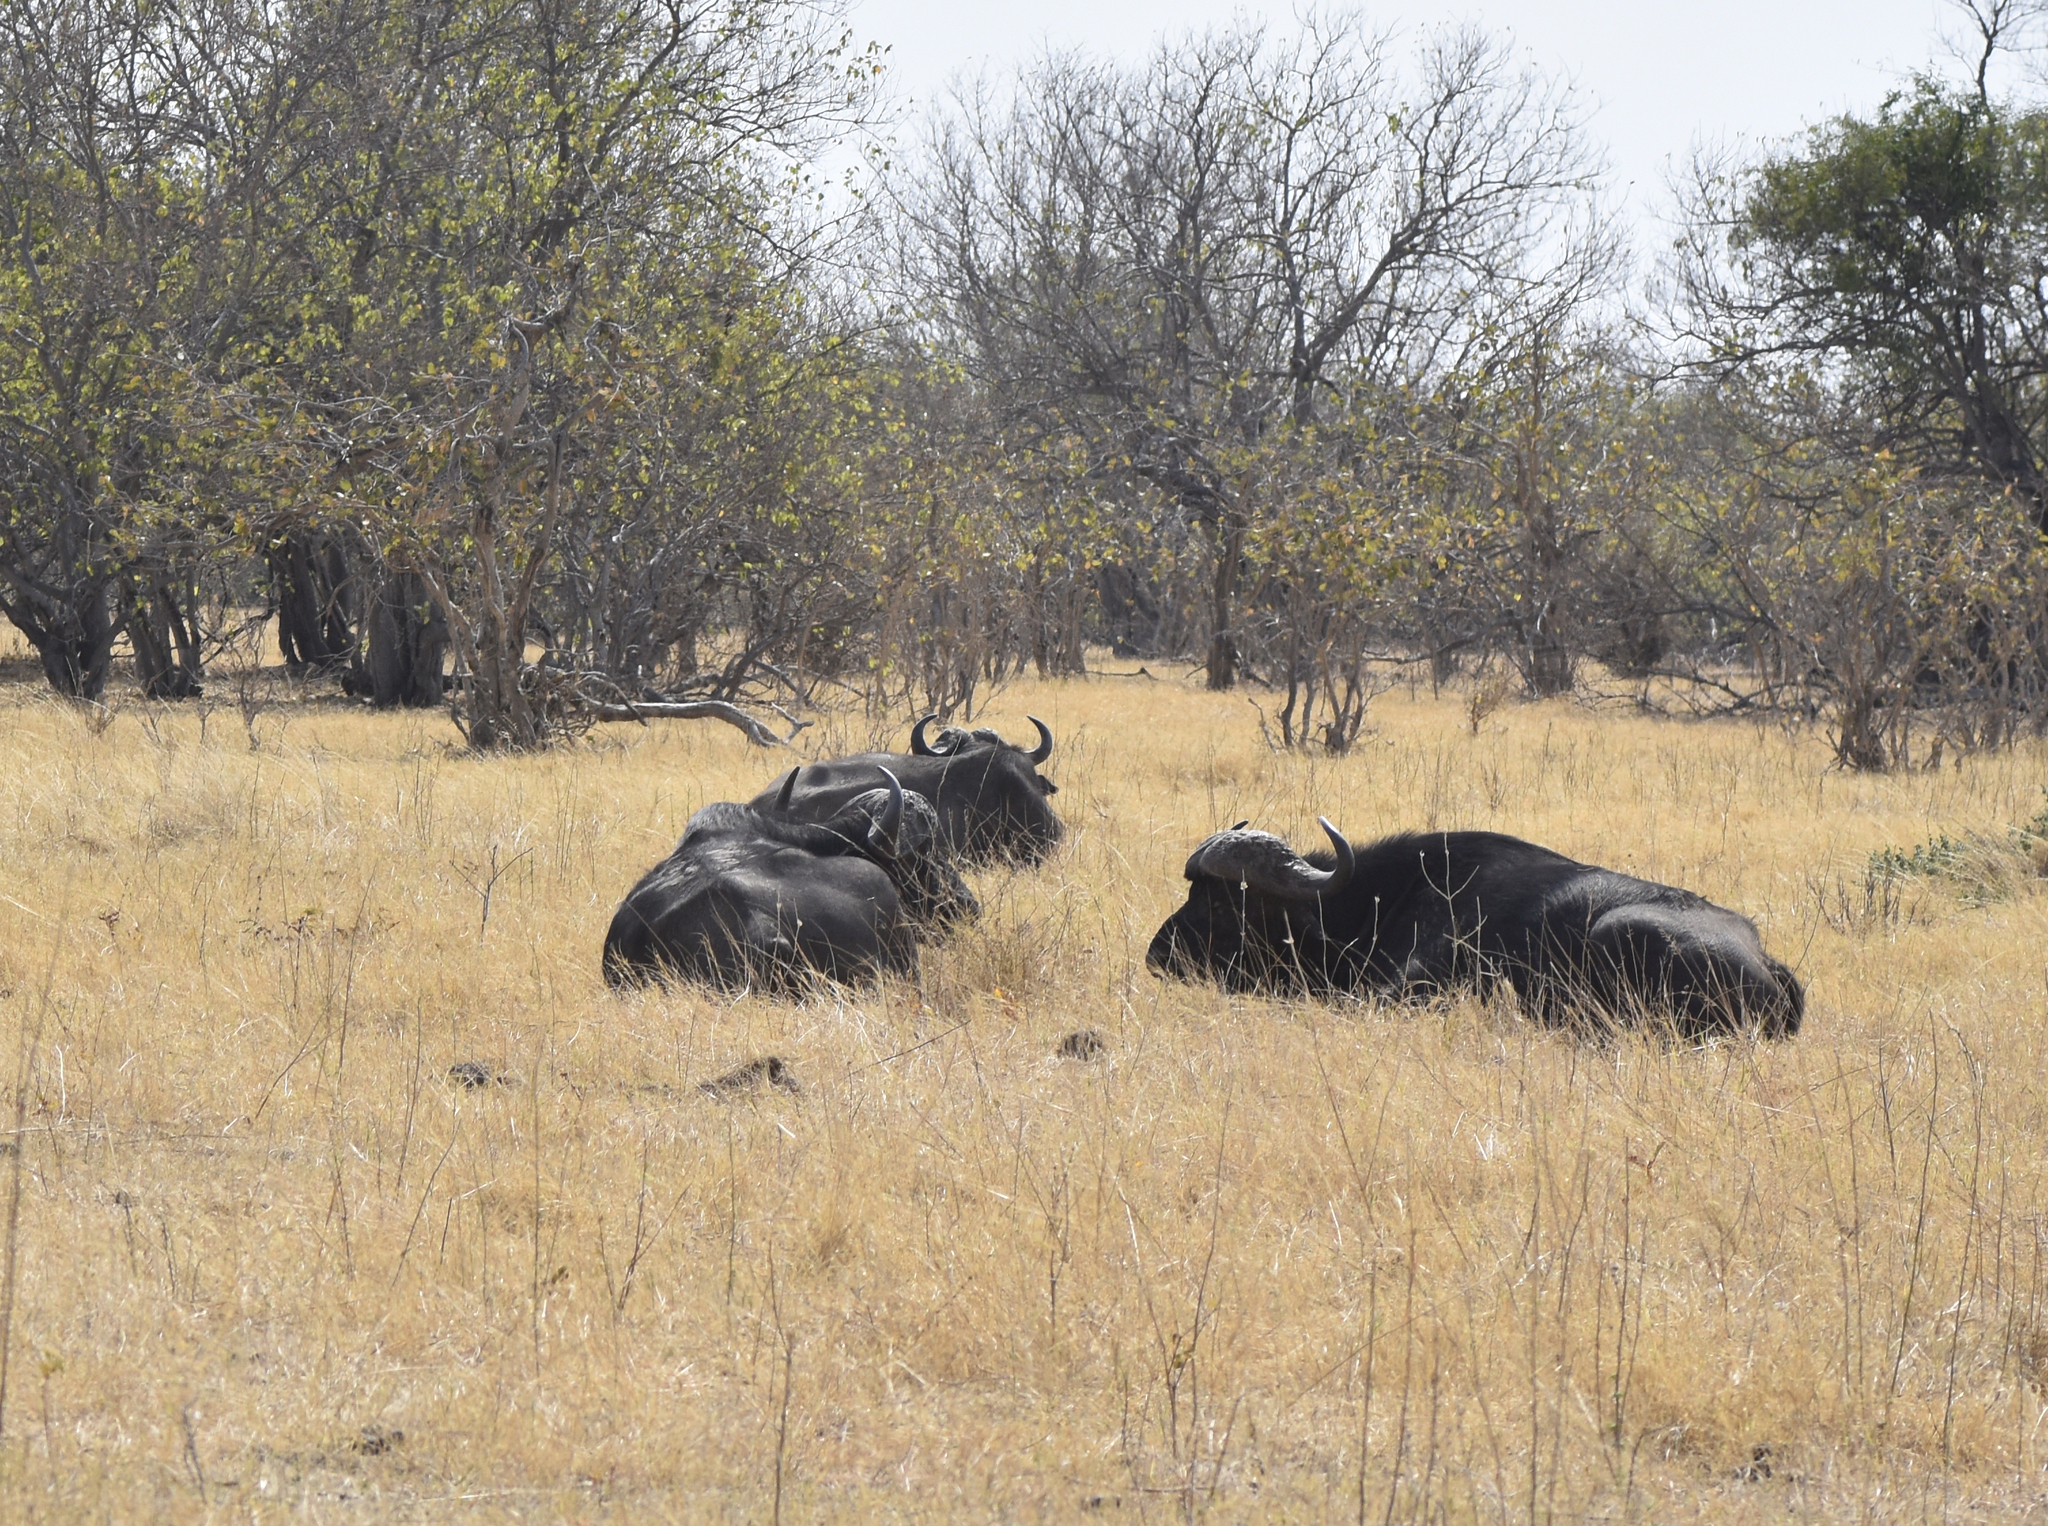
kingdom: Animalia
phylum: Chordata
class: Mammalia
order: Artiodactyla
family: Bovidae
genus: Syncerus
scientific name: Syncerus caffer
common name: African buffalo
